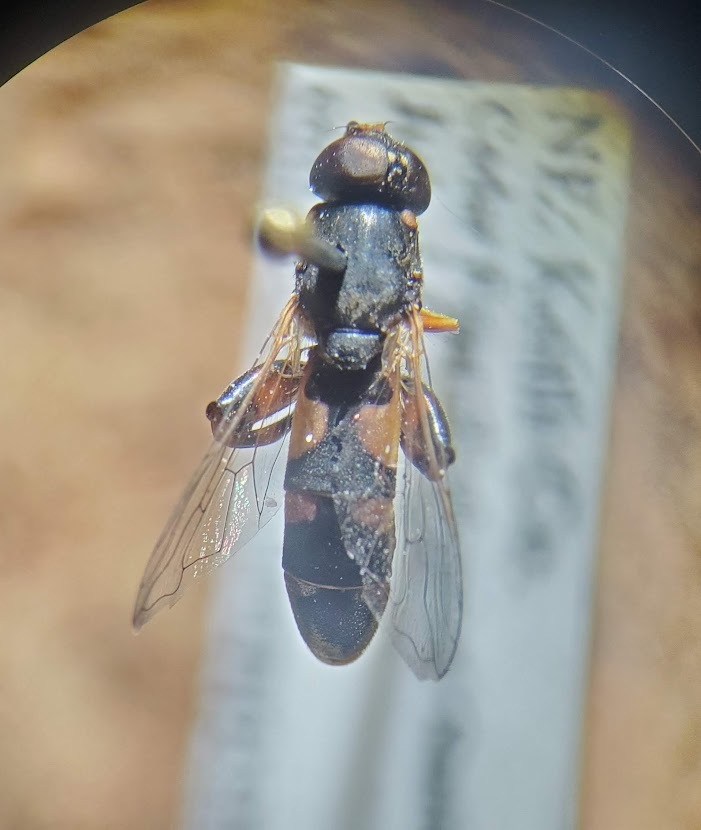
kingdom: Animalia
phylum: Arthropoda
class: Insecta
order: Diptera
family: Syrphidae
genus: Syritta
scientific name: Syritta pipiens
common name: Hover fly
